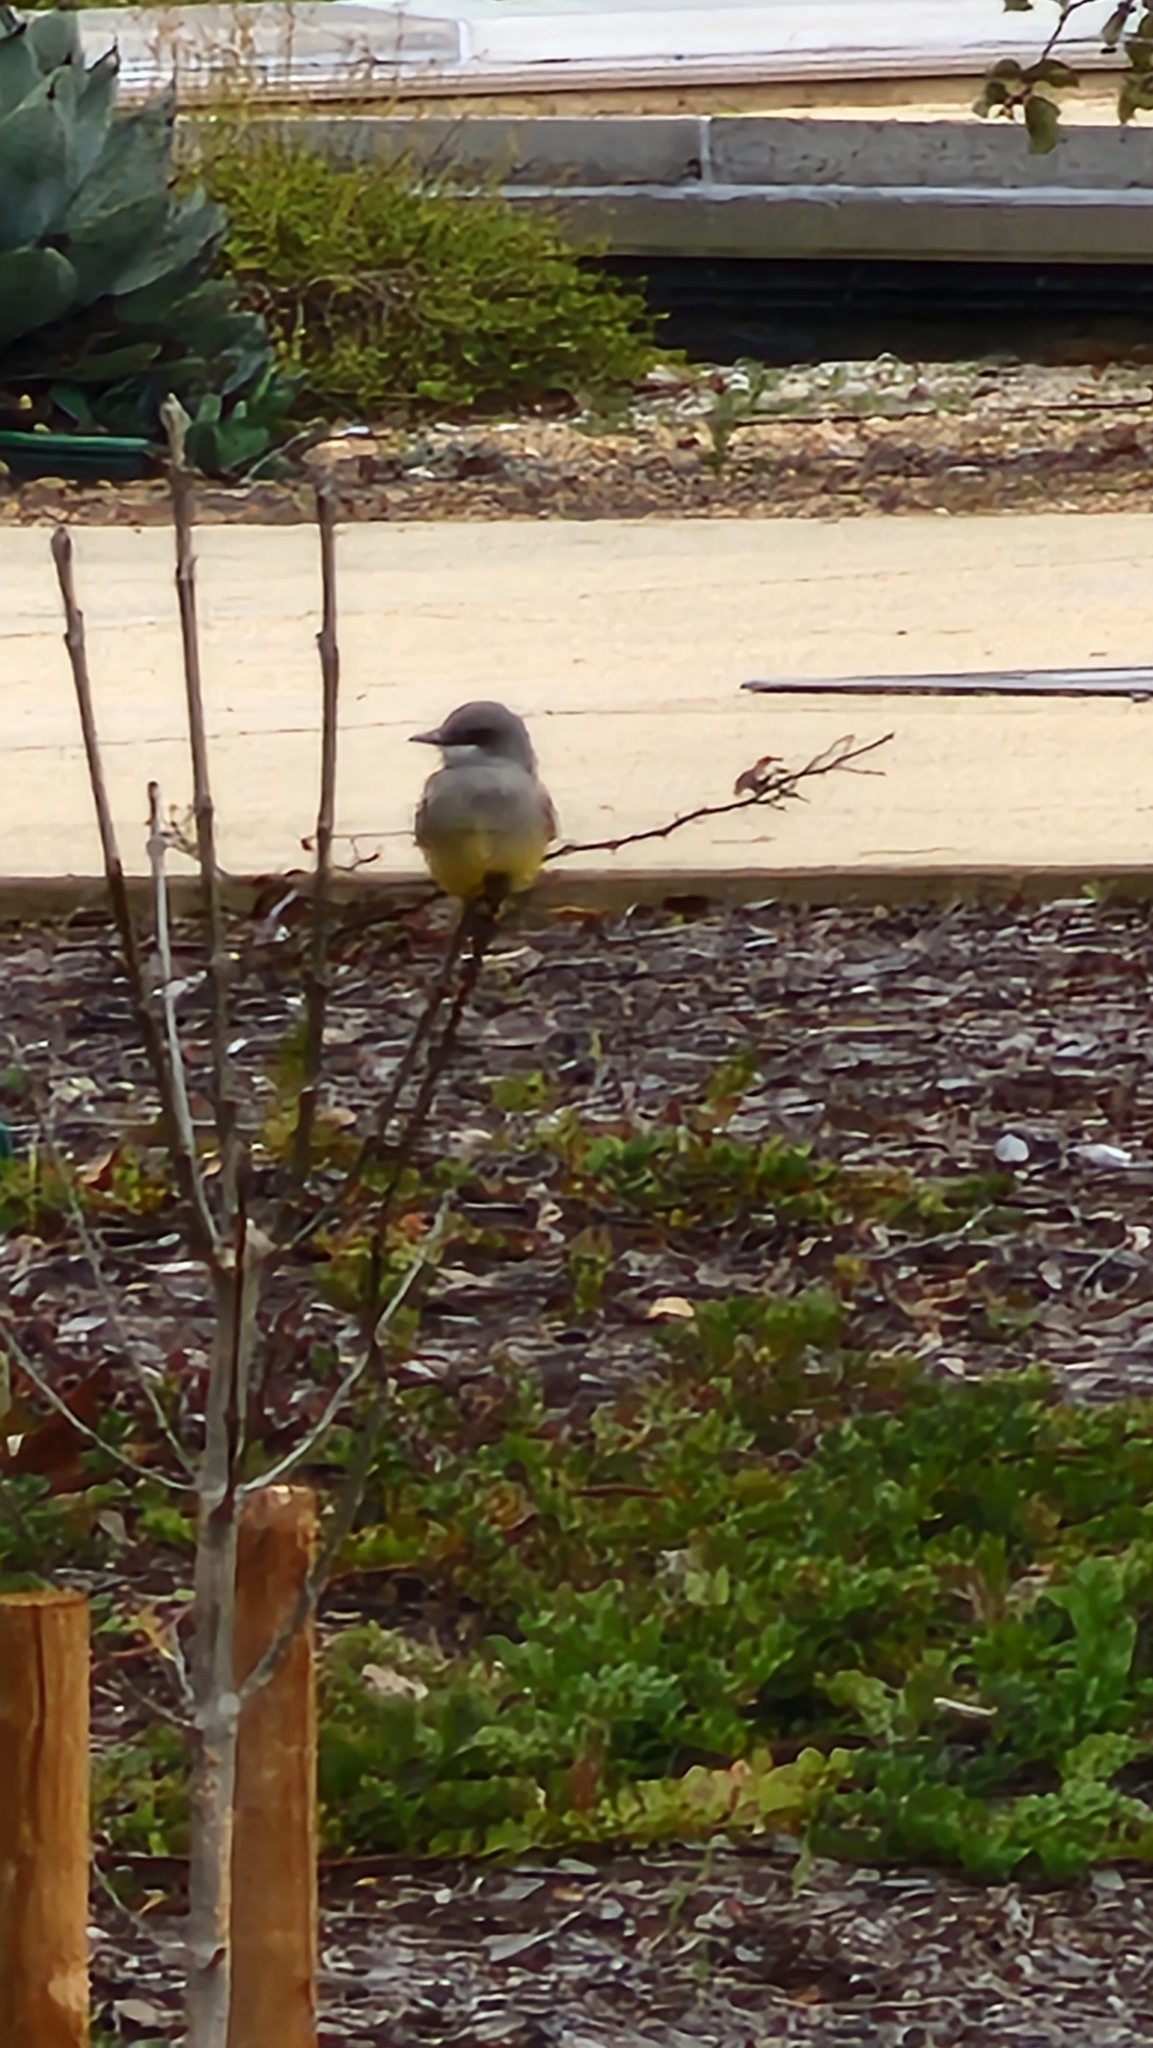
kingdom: Animalia
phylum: Chordata
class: Aves
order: Passeriformes
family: Tyrannidae
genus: Tyrannus
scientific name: Tyrannus vociferans
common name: Cassin's kingbird
